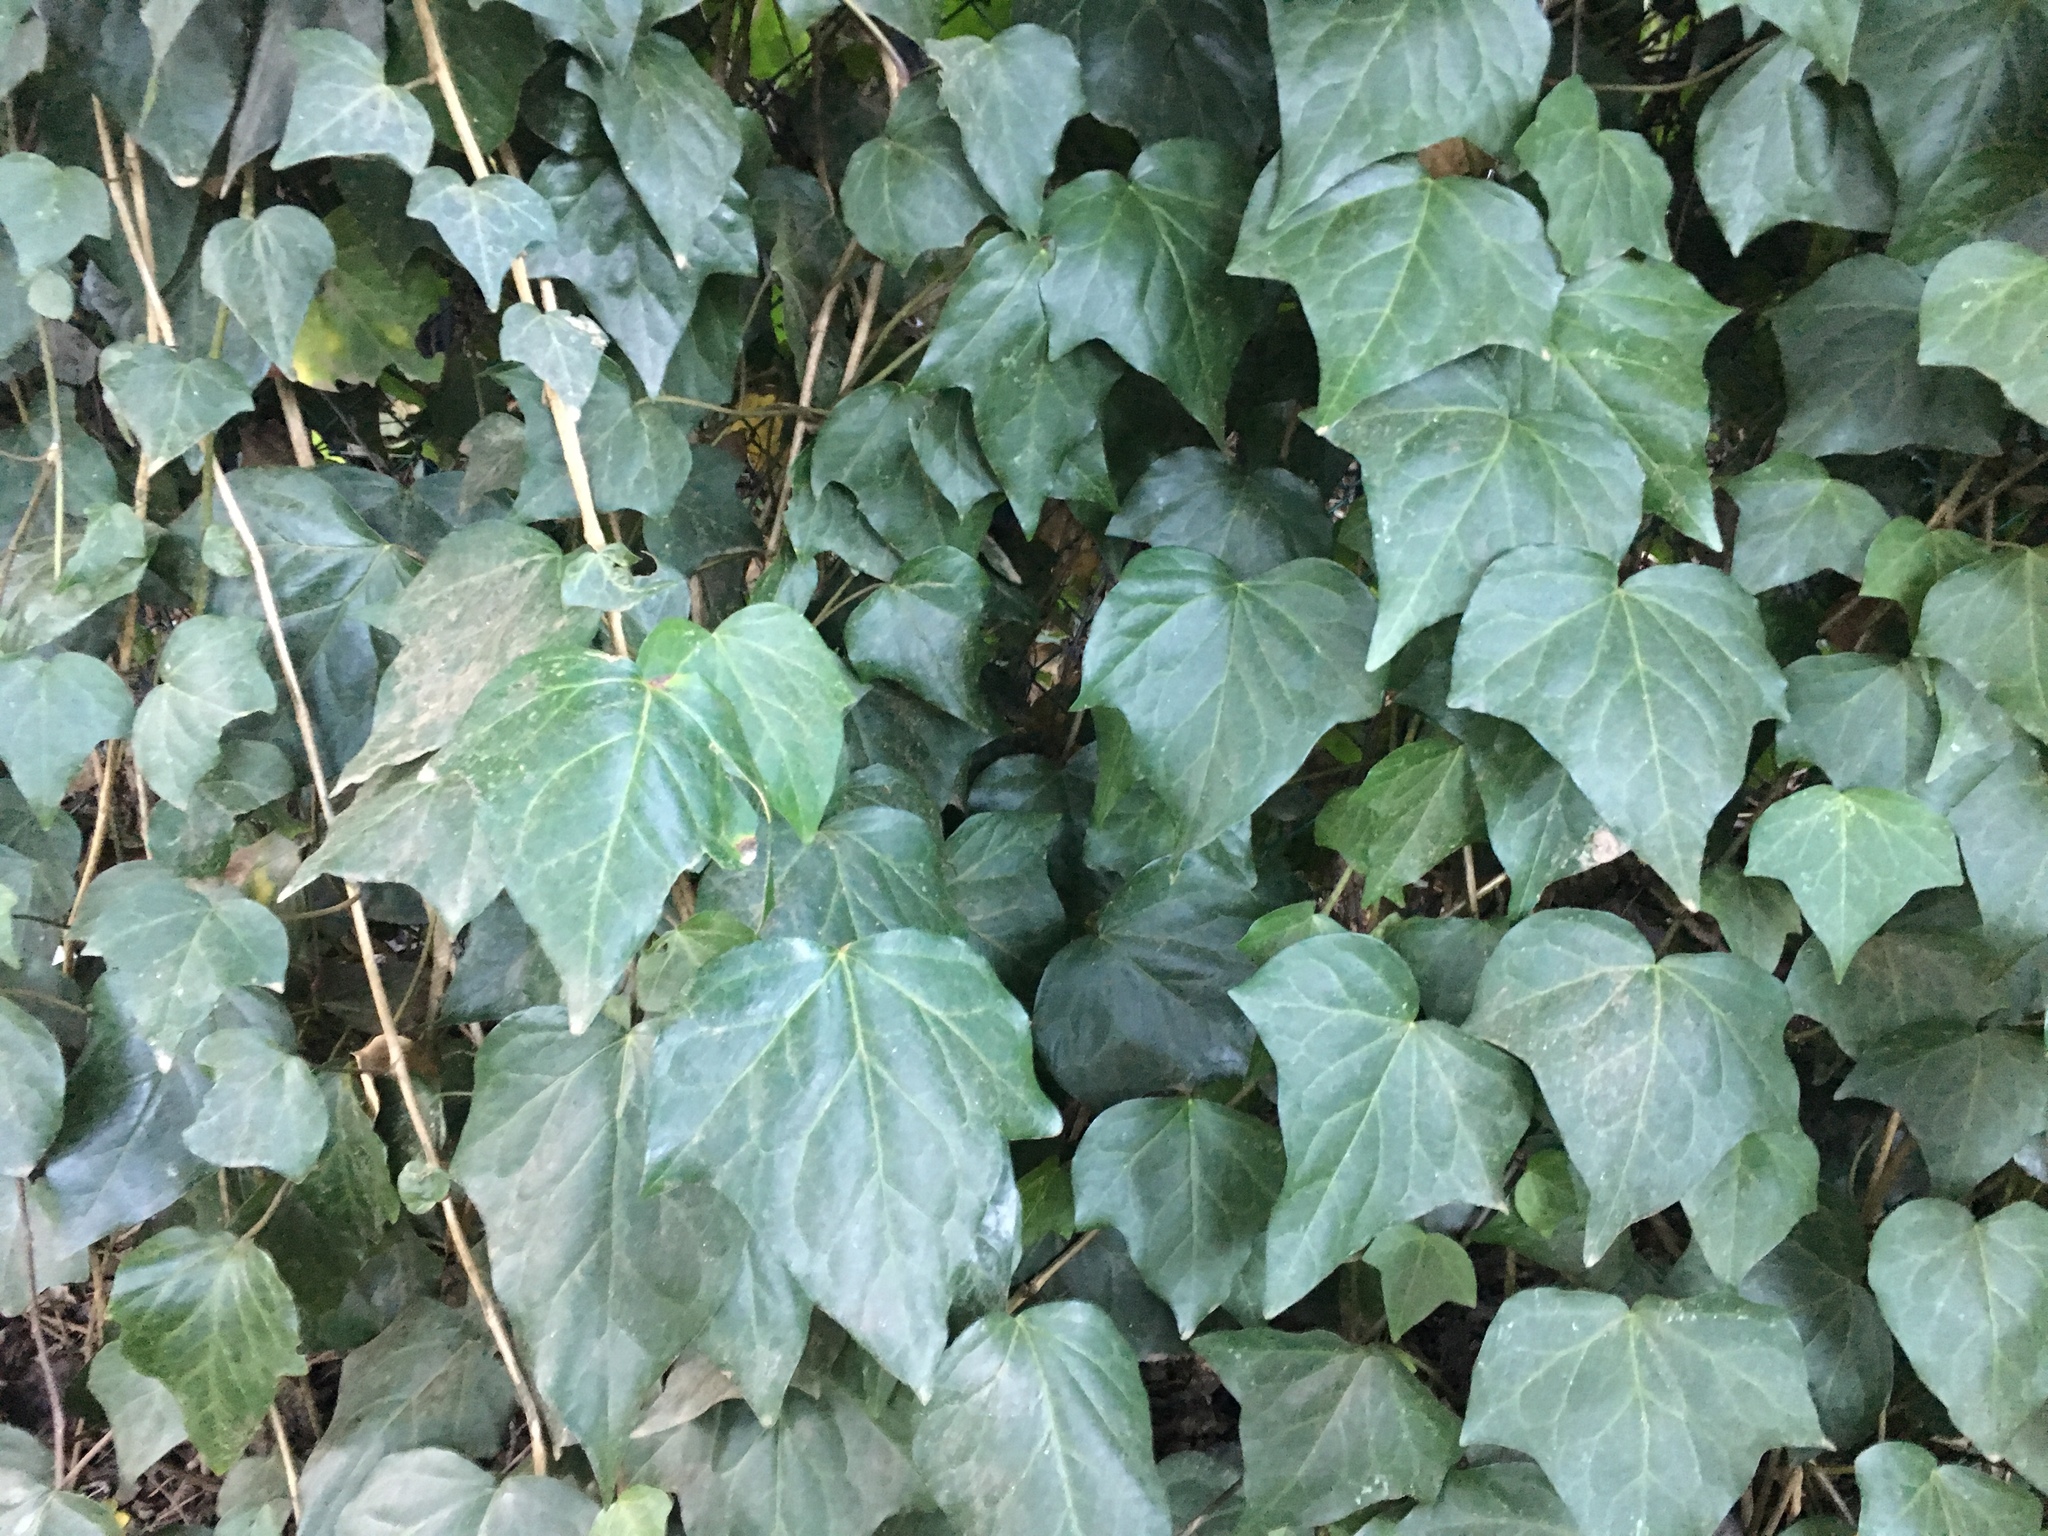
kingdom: Plantae
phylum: Tracheophyta
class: Magnoliopsida
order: Apiales
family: Araliaceae
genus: Hedera
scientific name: Hedera canariensis
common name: Madeira ivy
